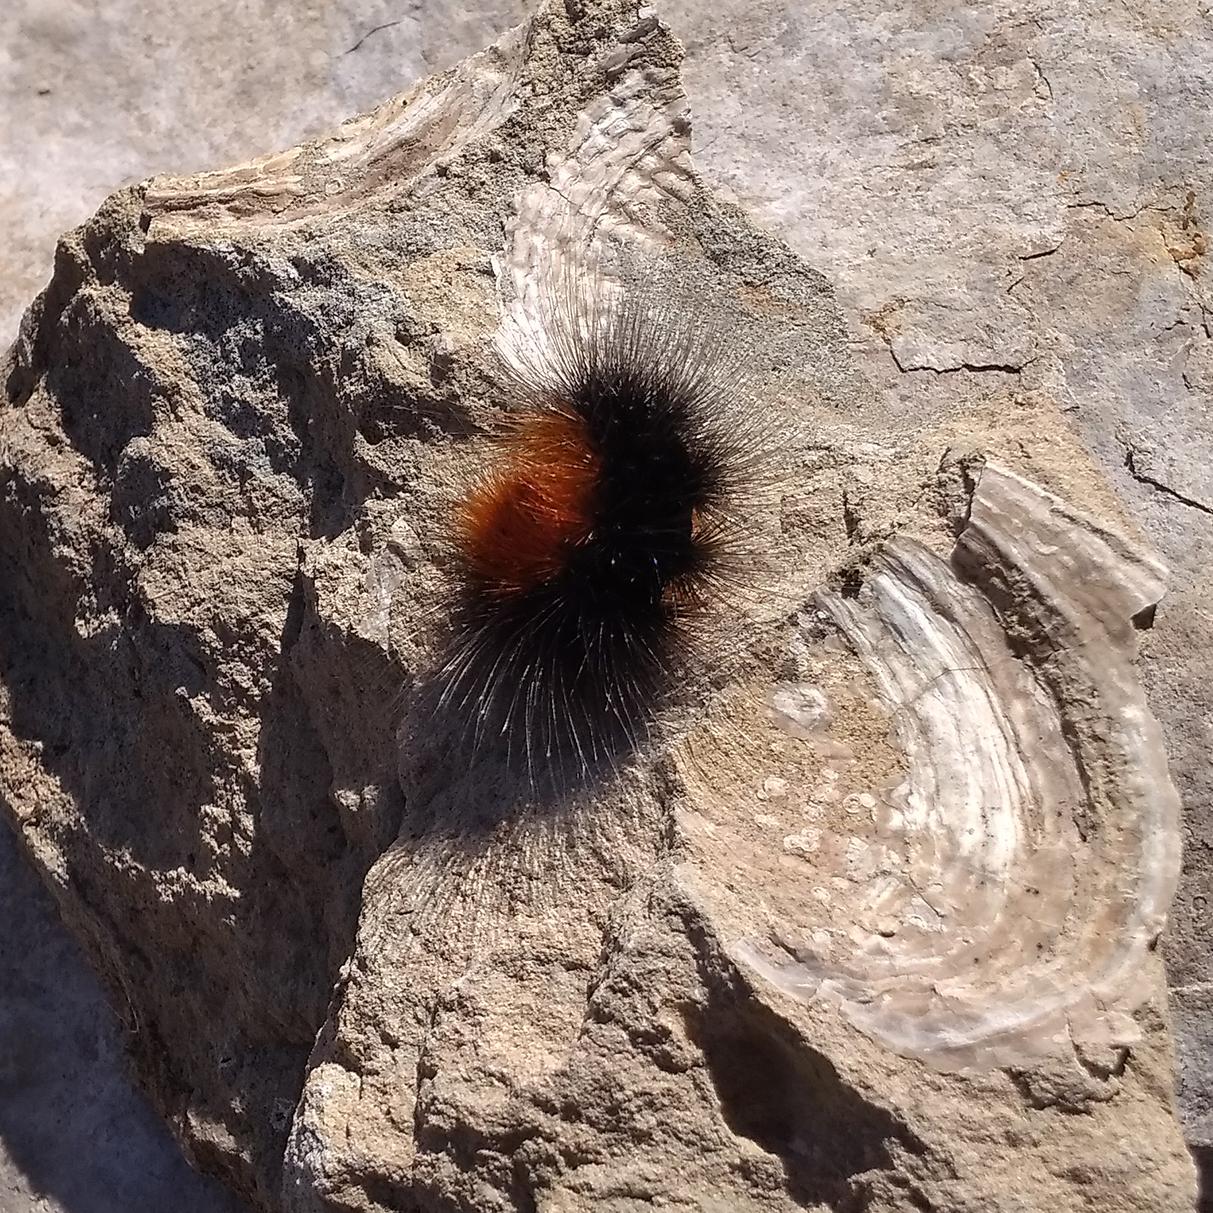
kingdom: Animalia
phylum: Arthropoda
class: Insecta
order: Lepidoptera
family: Erebidae
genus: Arctia
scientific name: Arctia caja
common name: Garden tiger
